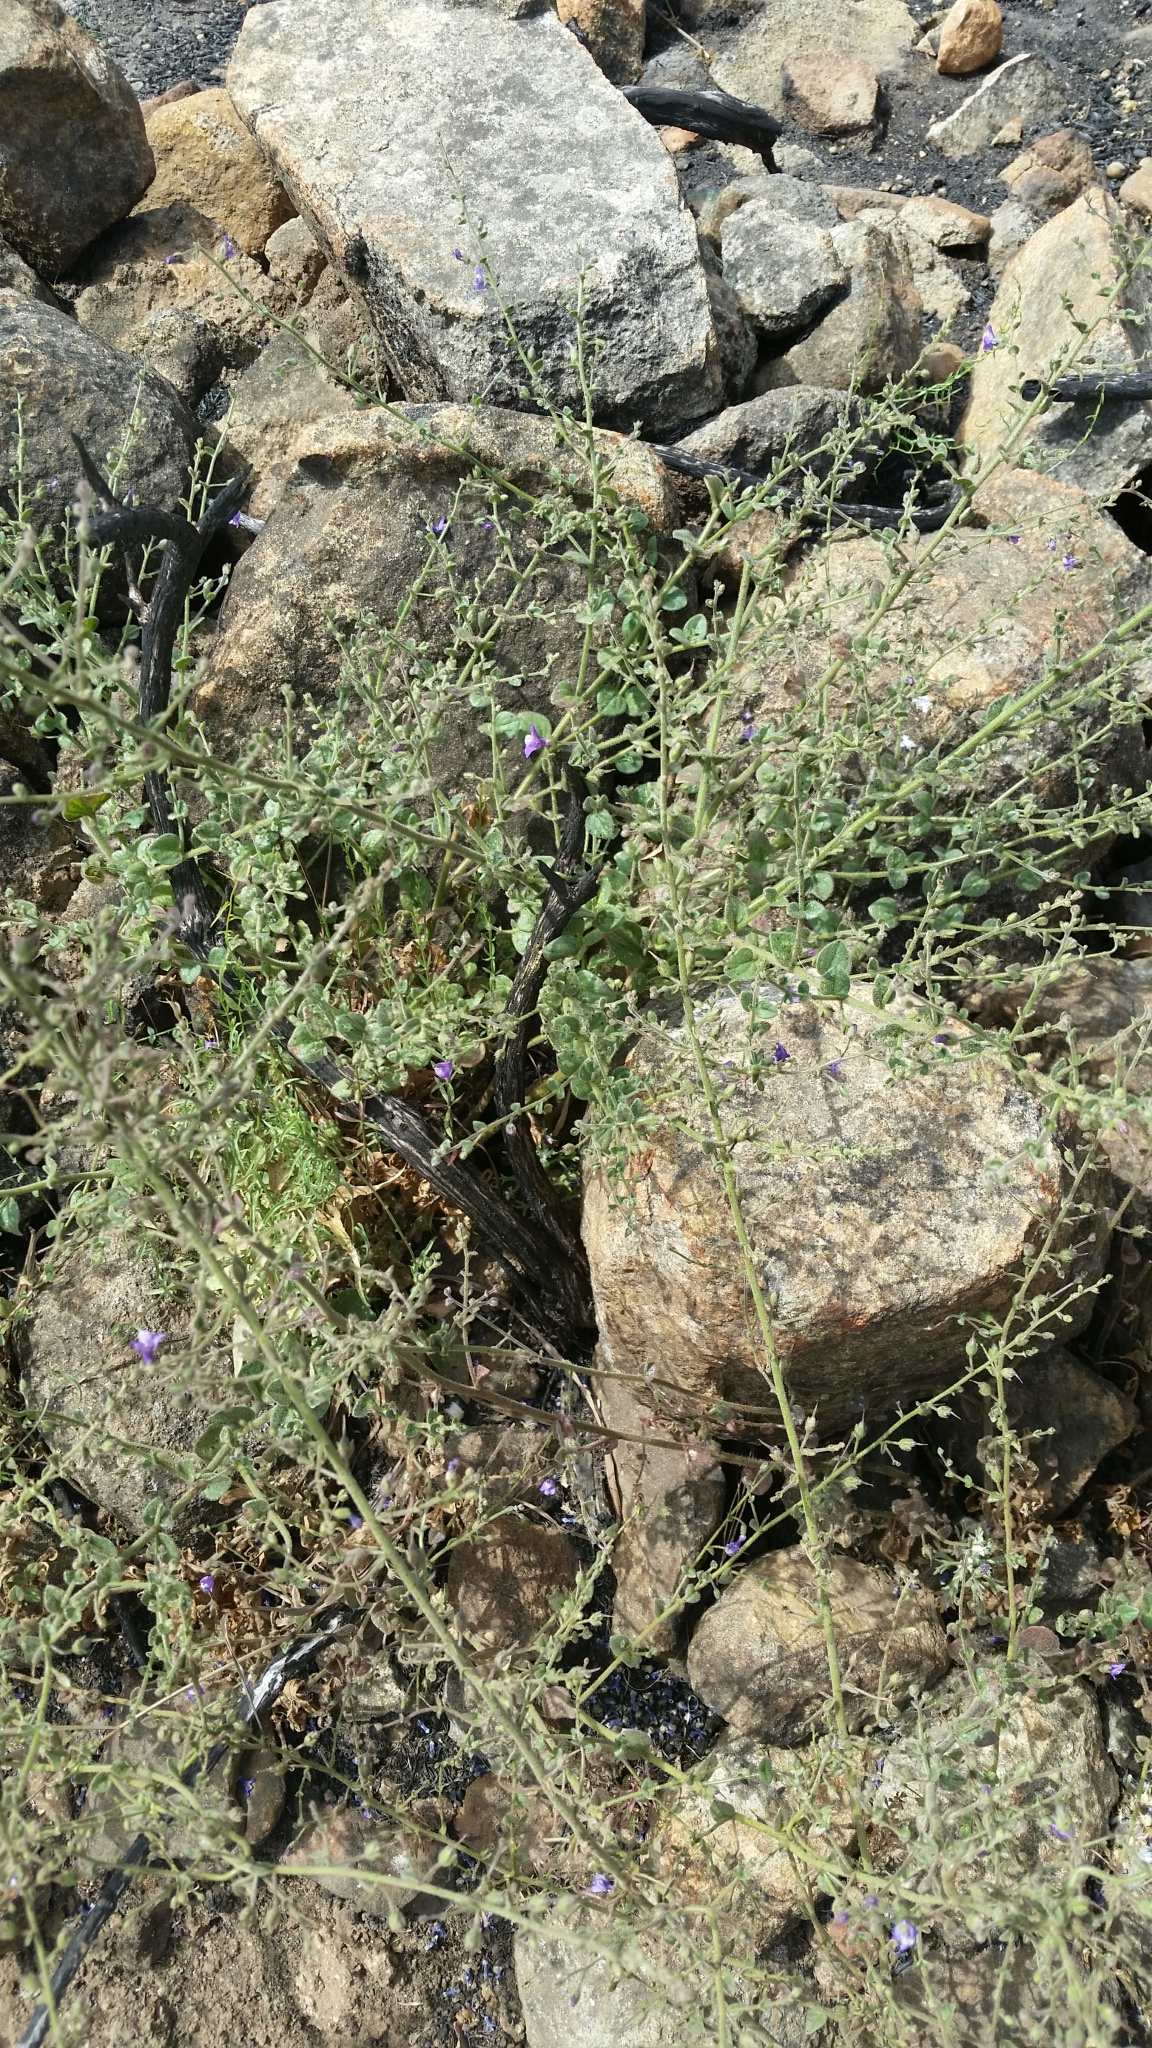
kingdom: Plantae
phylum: Tracheophyta
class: Magnoliopsida
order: Lamiales
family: Plantaginaceae
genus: Sairocarpus
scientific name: Sairocarpus nuttallianus
